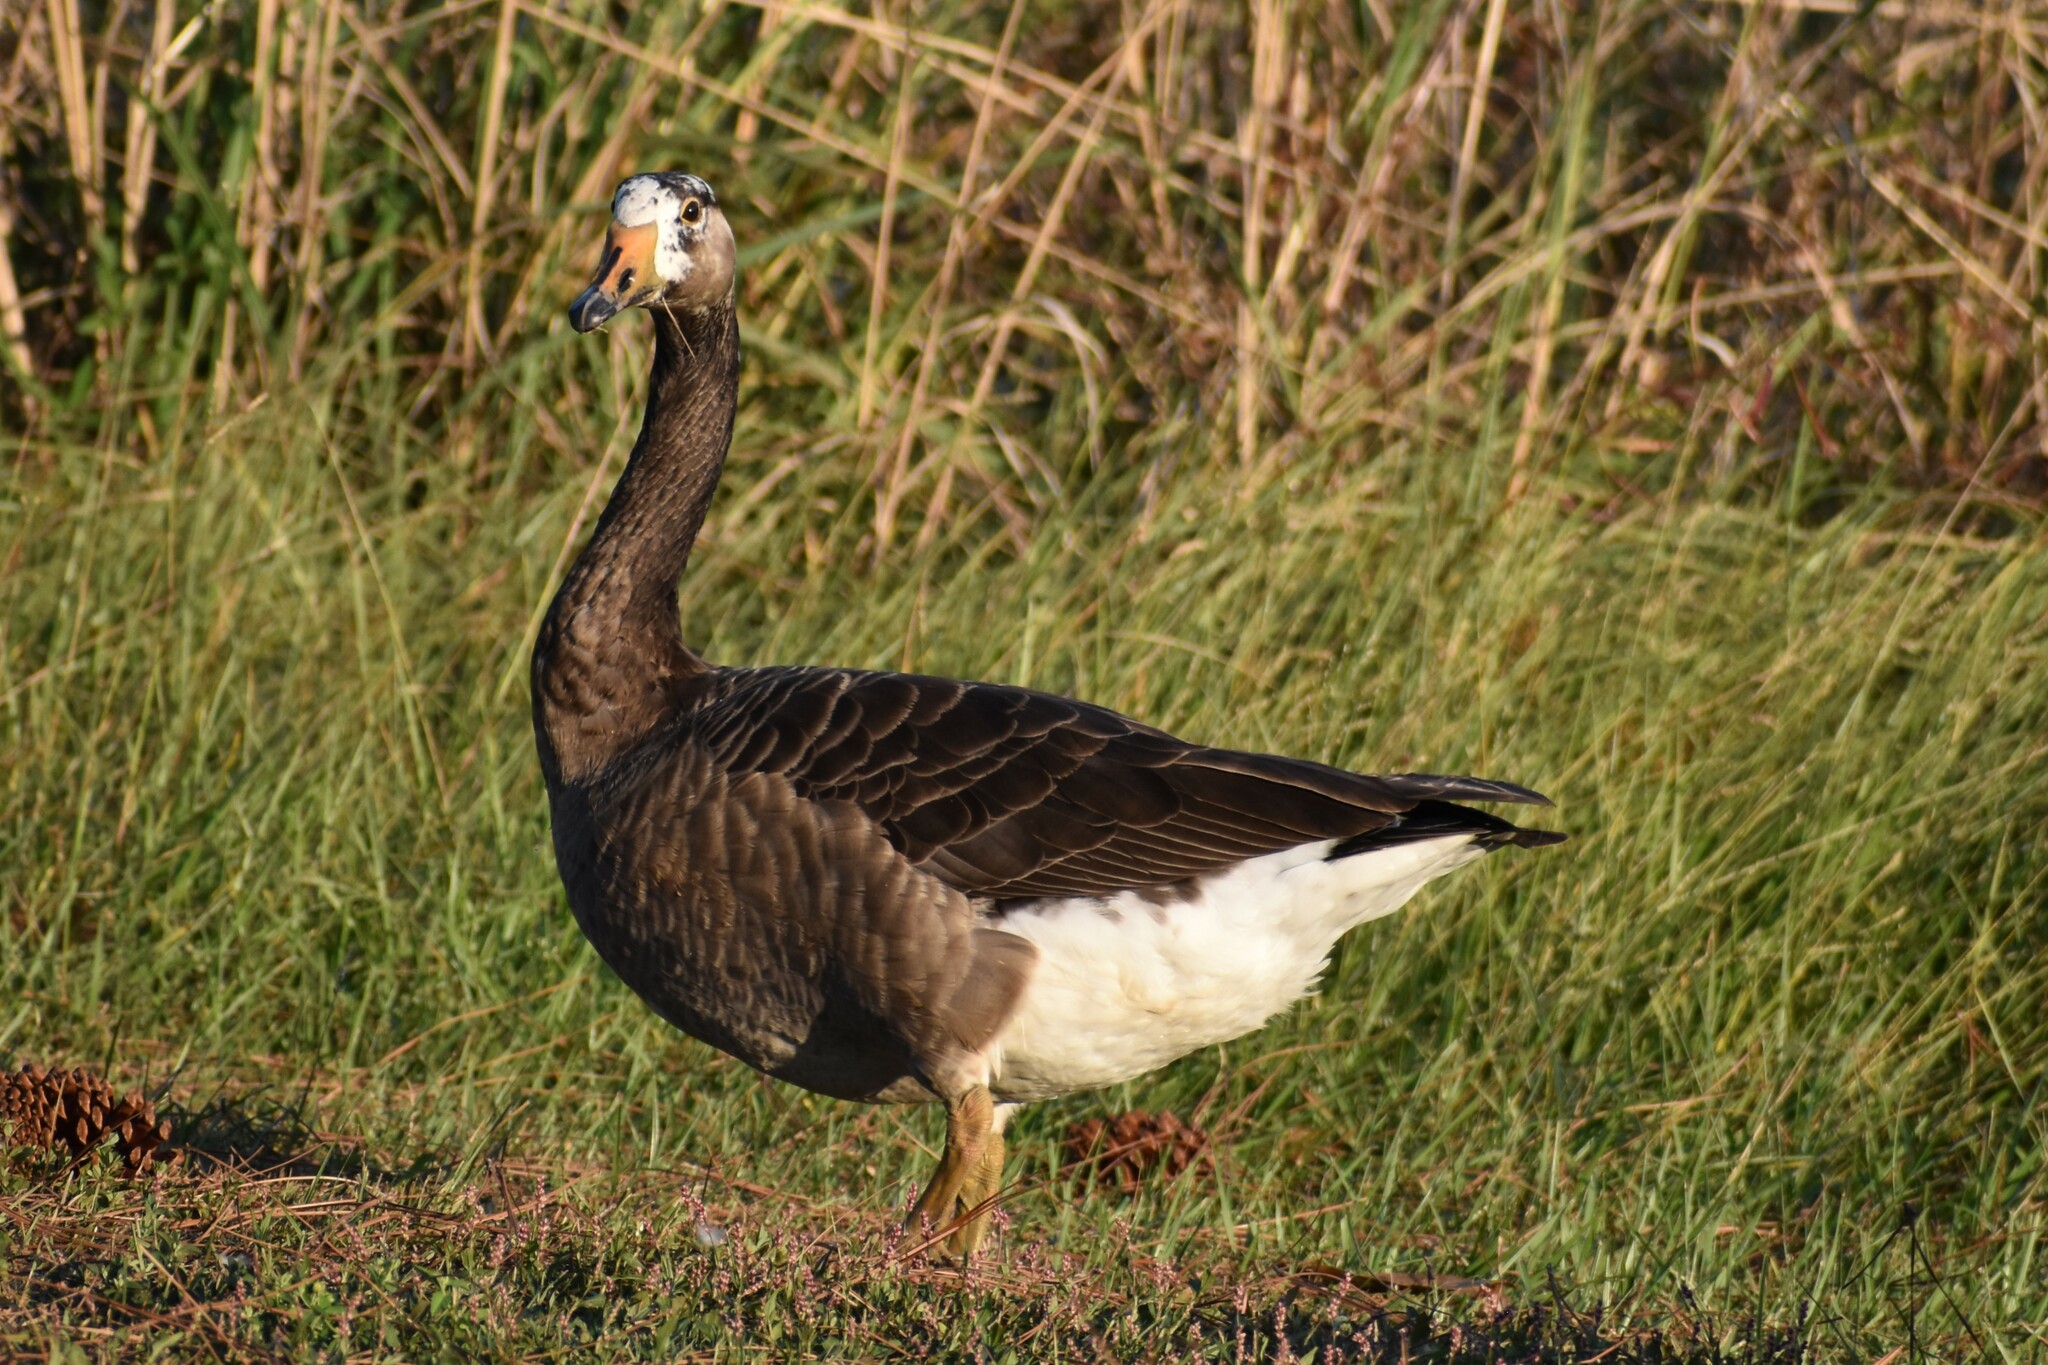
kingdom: Animalia
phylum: Chordata
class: Aves
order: Anseriformes
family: Anatidae
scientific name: Anatidae
